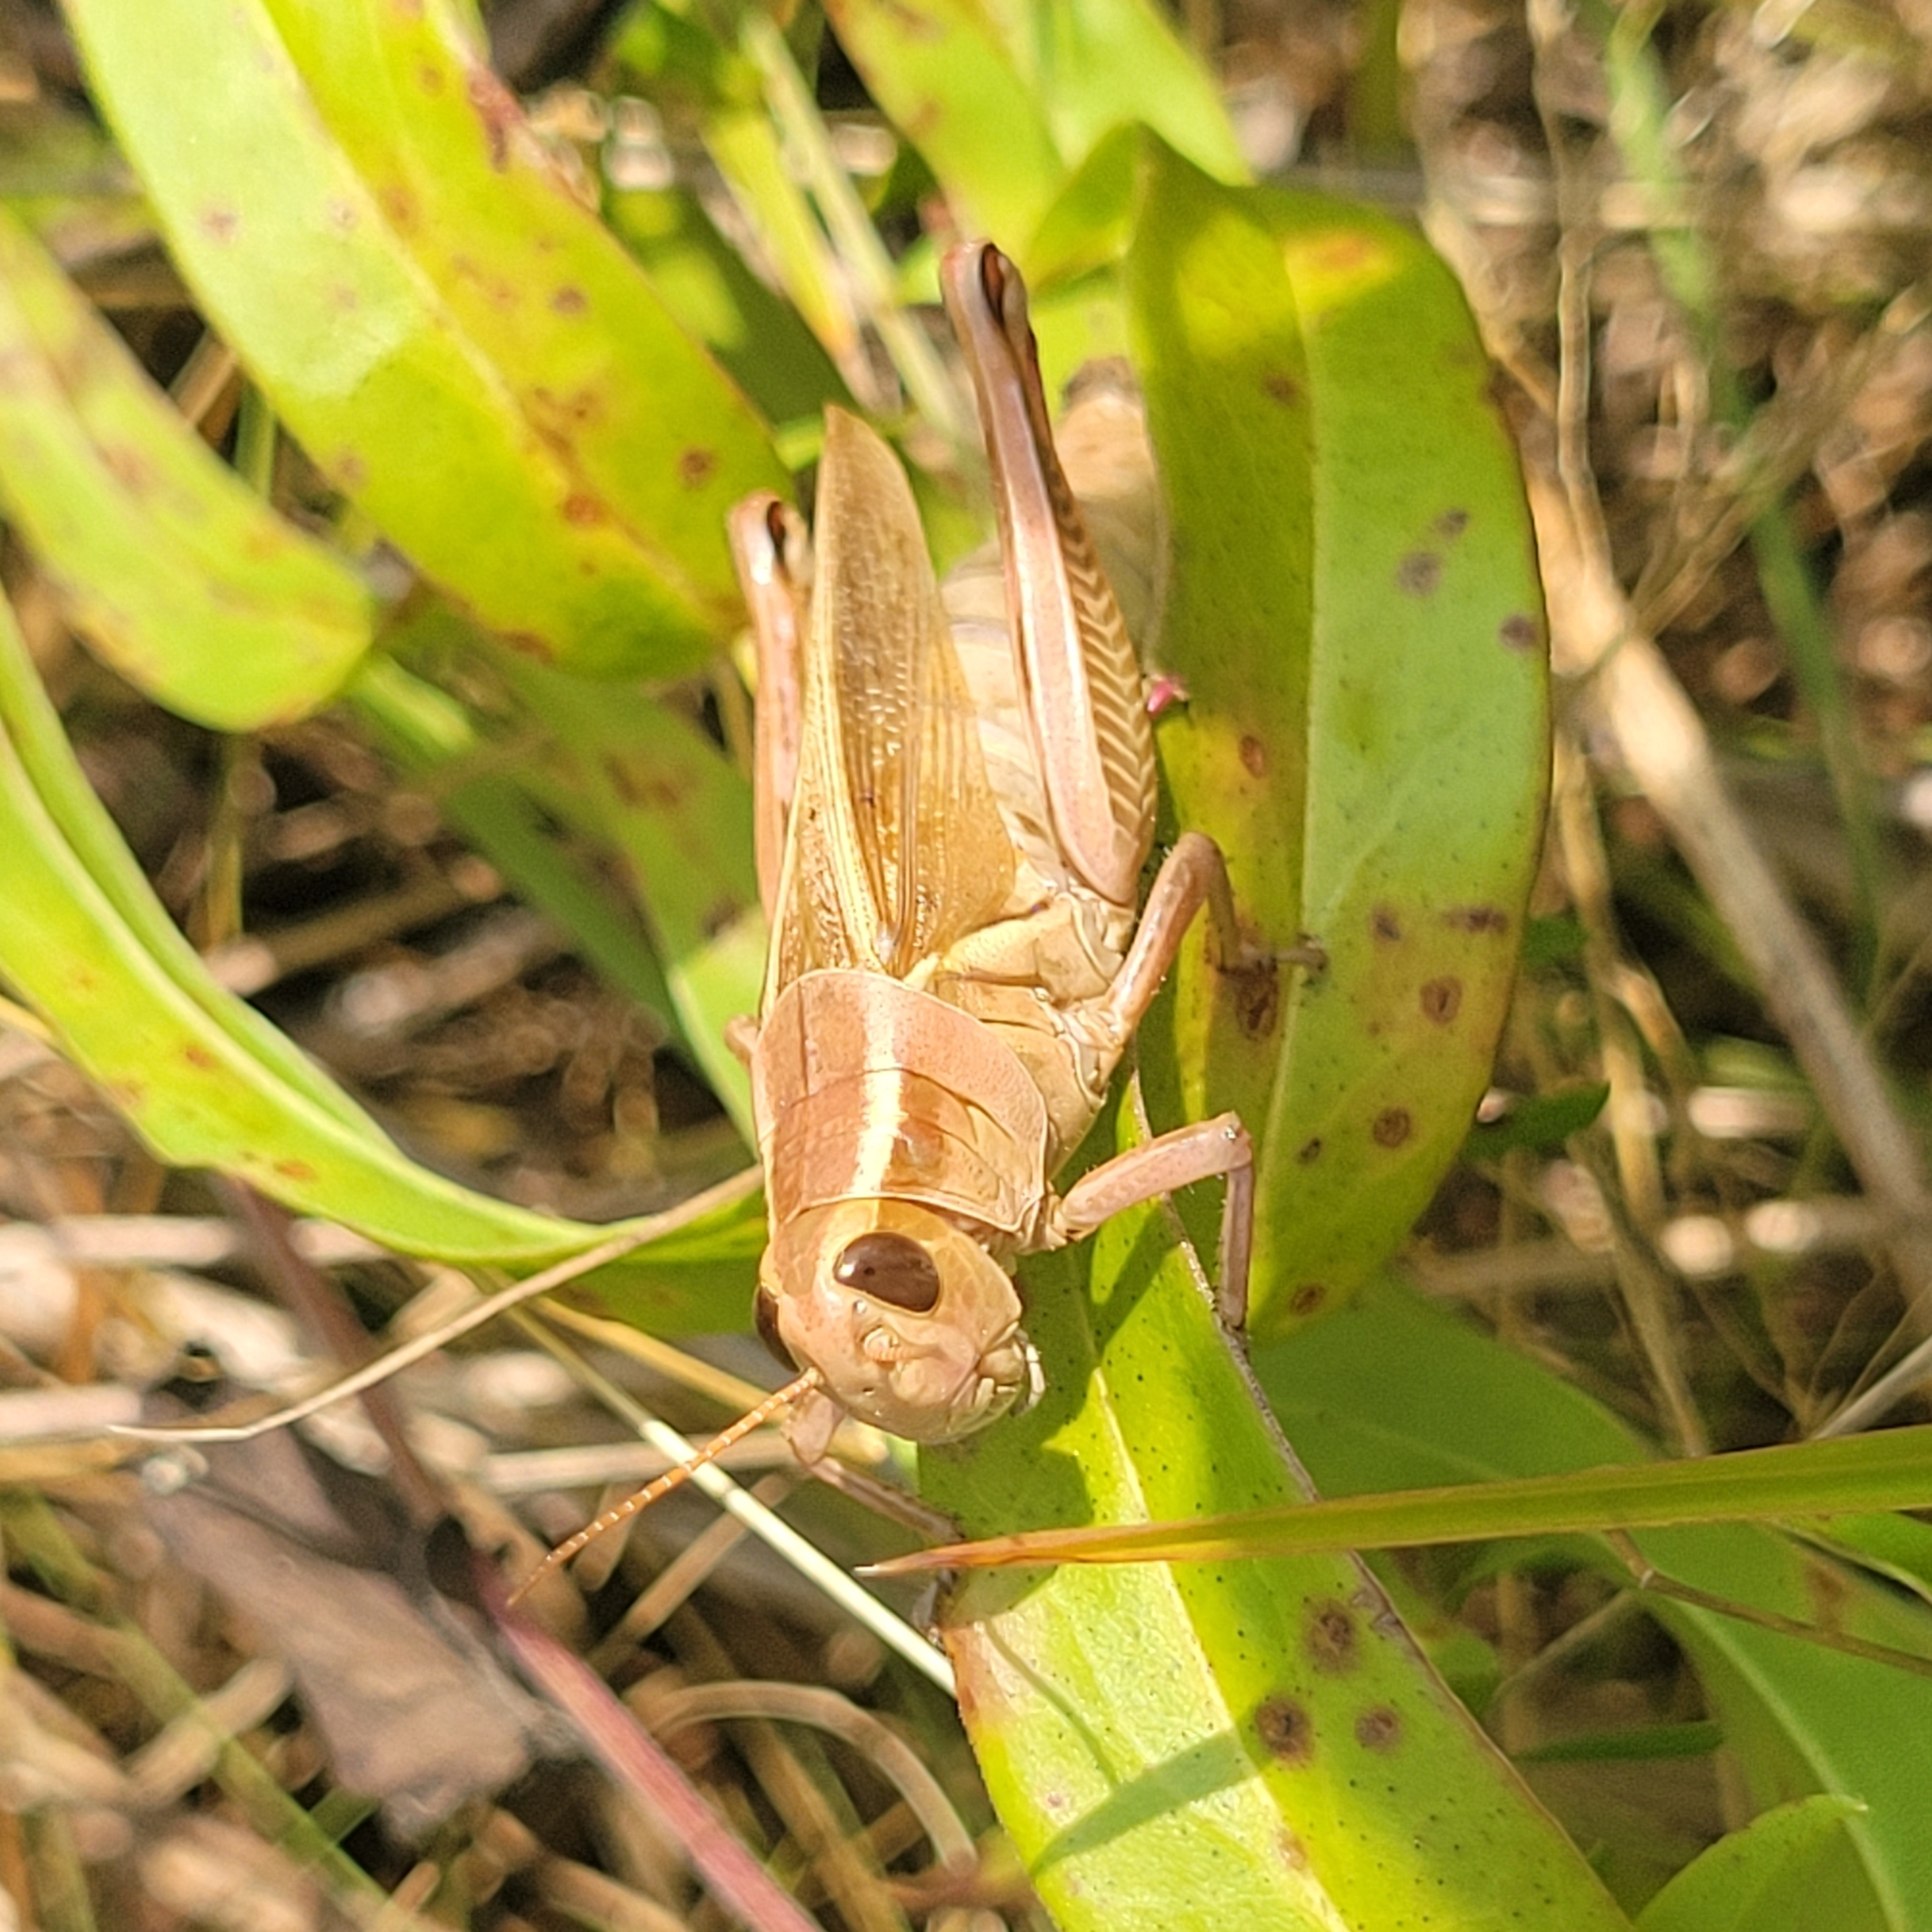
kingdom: Animalia
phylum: Arthropoda
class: Insecta
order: Orthoptera
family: Acrididae
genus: Melanoplus
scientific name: Melanoplus bivittatus
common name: Two-striped grasshopper
